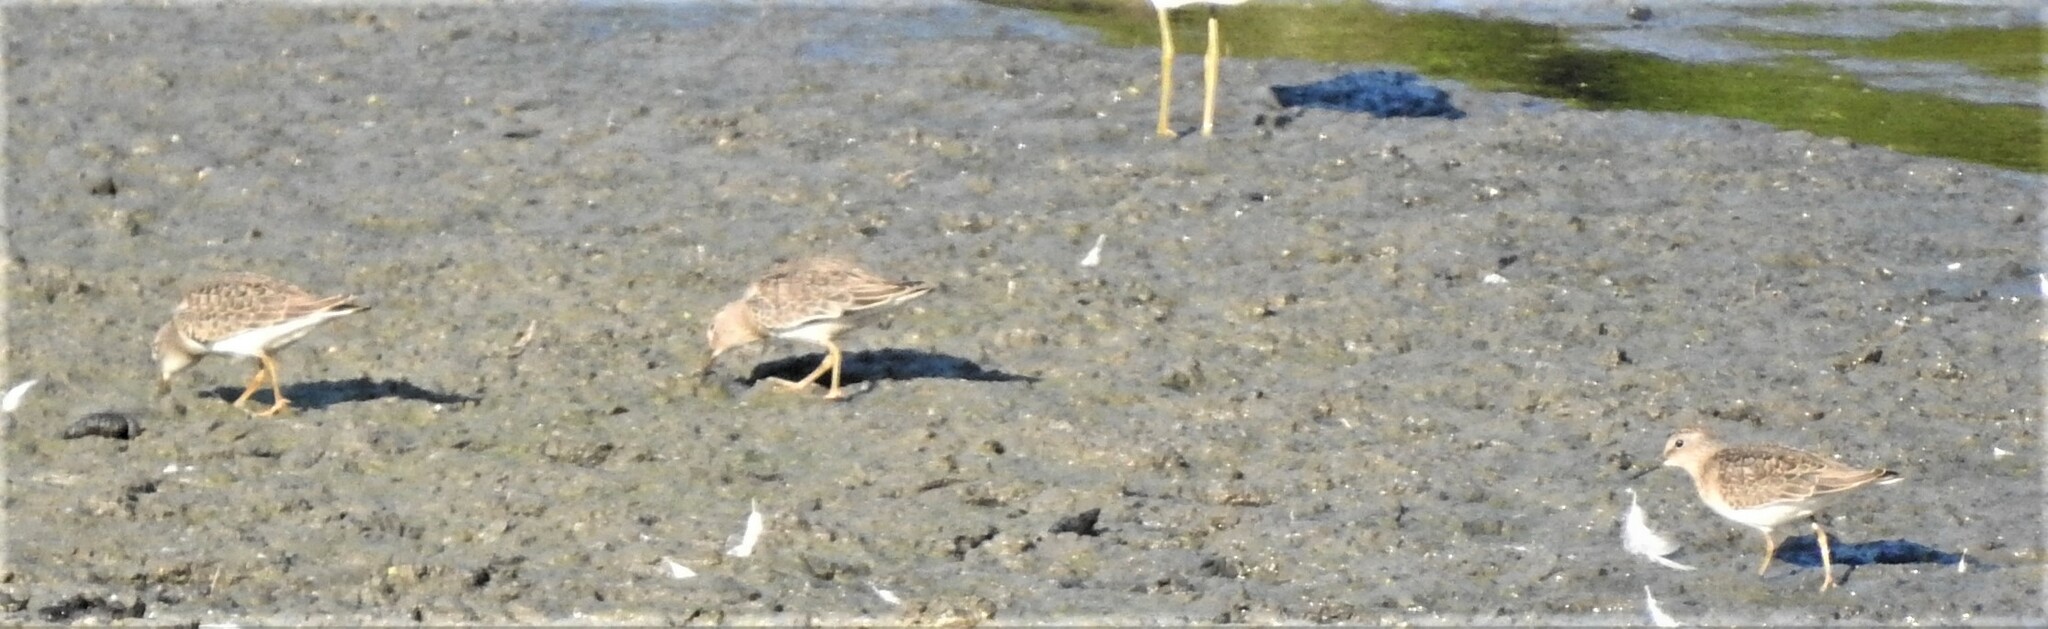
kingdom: Animalia
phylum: Chordata
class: Aves
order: Charadriiformes
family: Scolopacidae
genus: Calidris
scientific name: Calidris temminckii
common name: Temminck's stint
